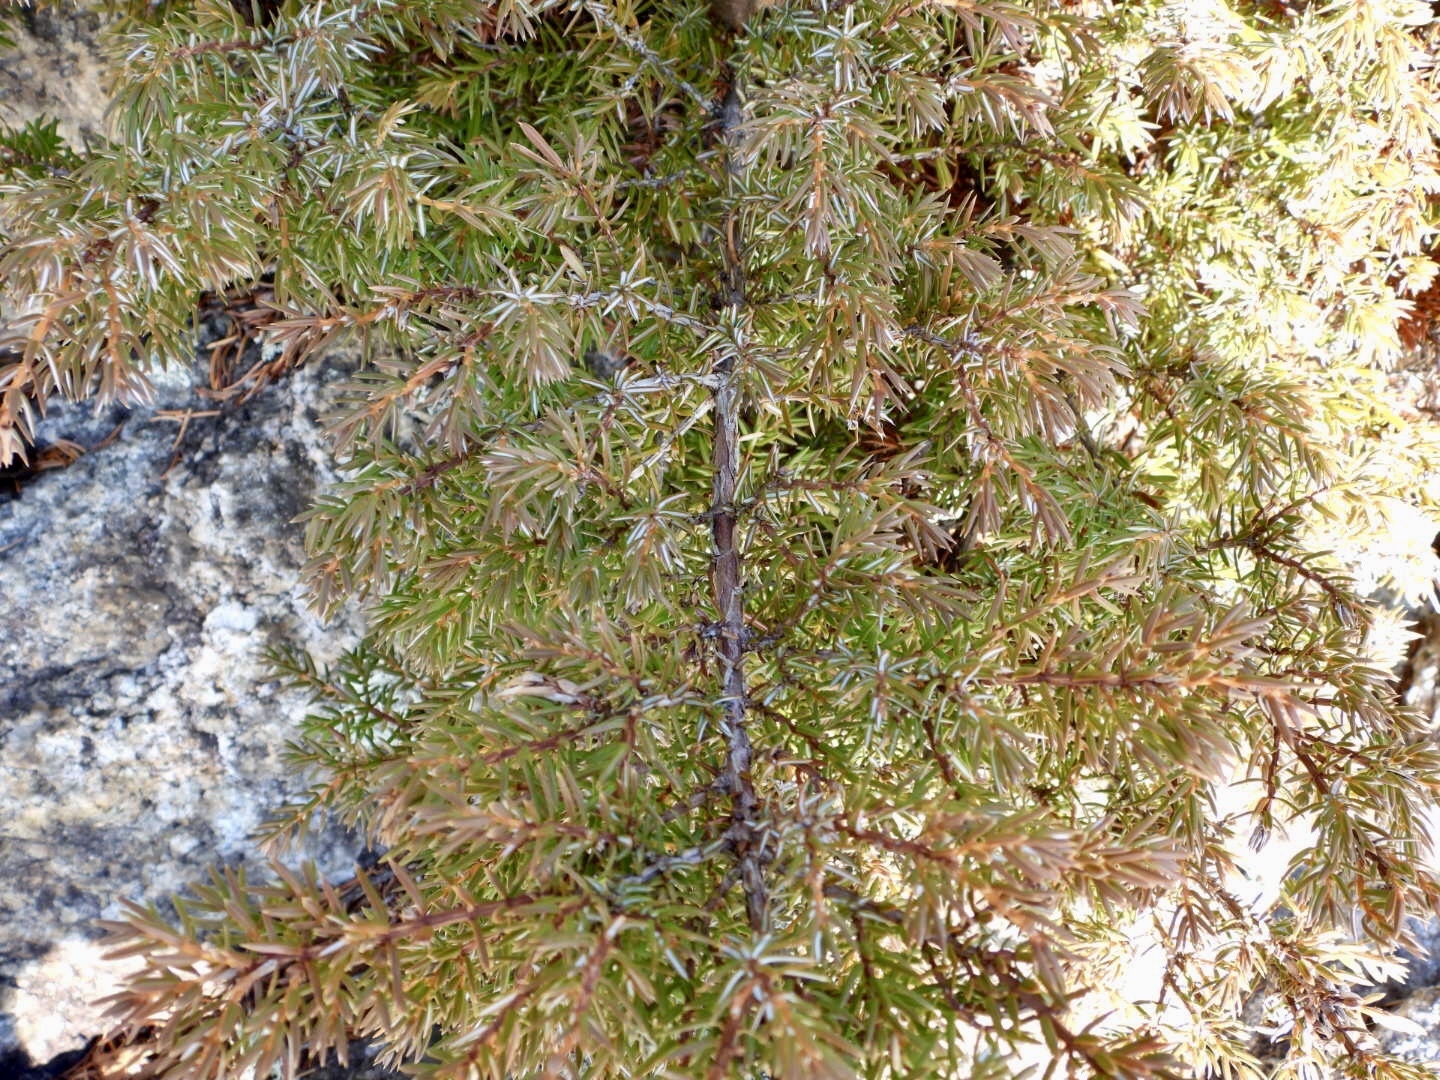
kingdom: Plantae
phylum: Tracheophyta
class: Pinopsida
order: Pinales
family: Cupressaceae
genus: Juniperus
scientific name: Juniperus communis
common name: Common juniper
